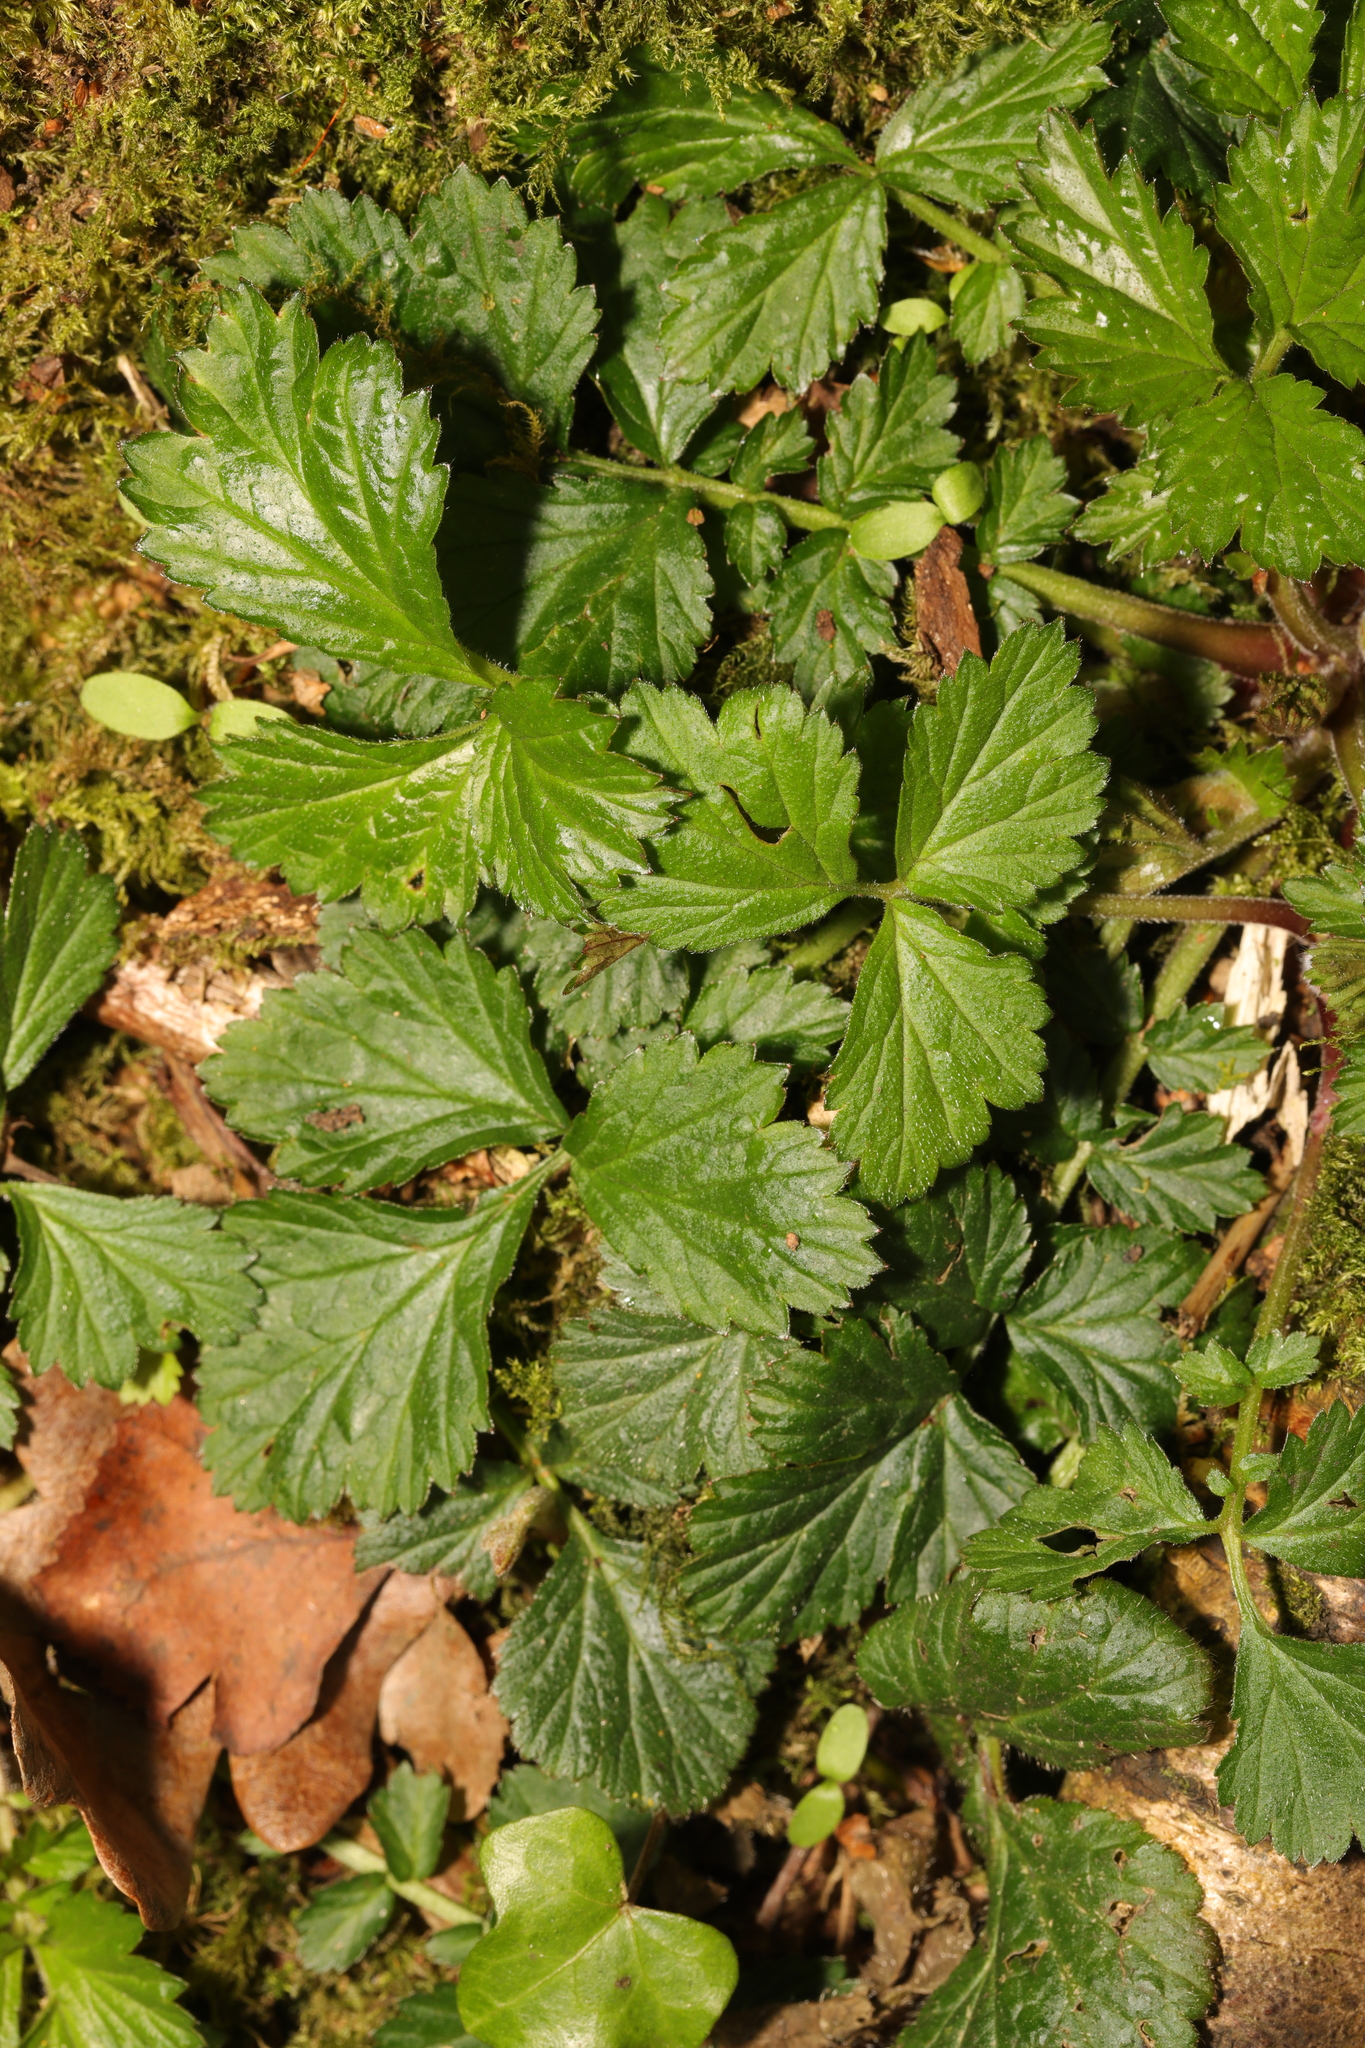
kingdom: Plantae
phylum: Tracheophyta
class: Magnoliopsida
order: Rosales
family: Rosaceae
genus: Geum
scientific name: Geum urbanum
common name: Wood avens
